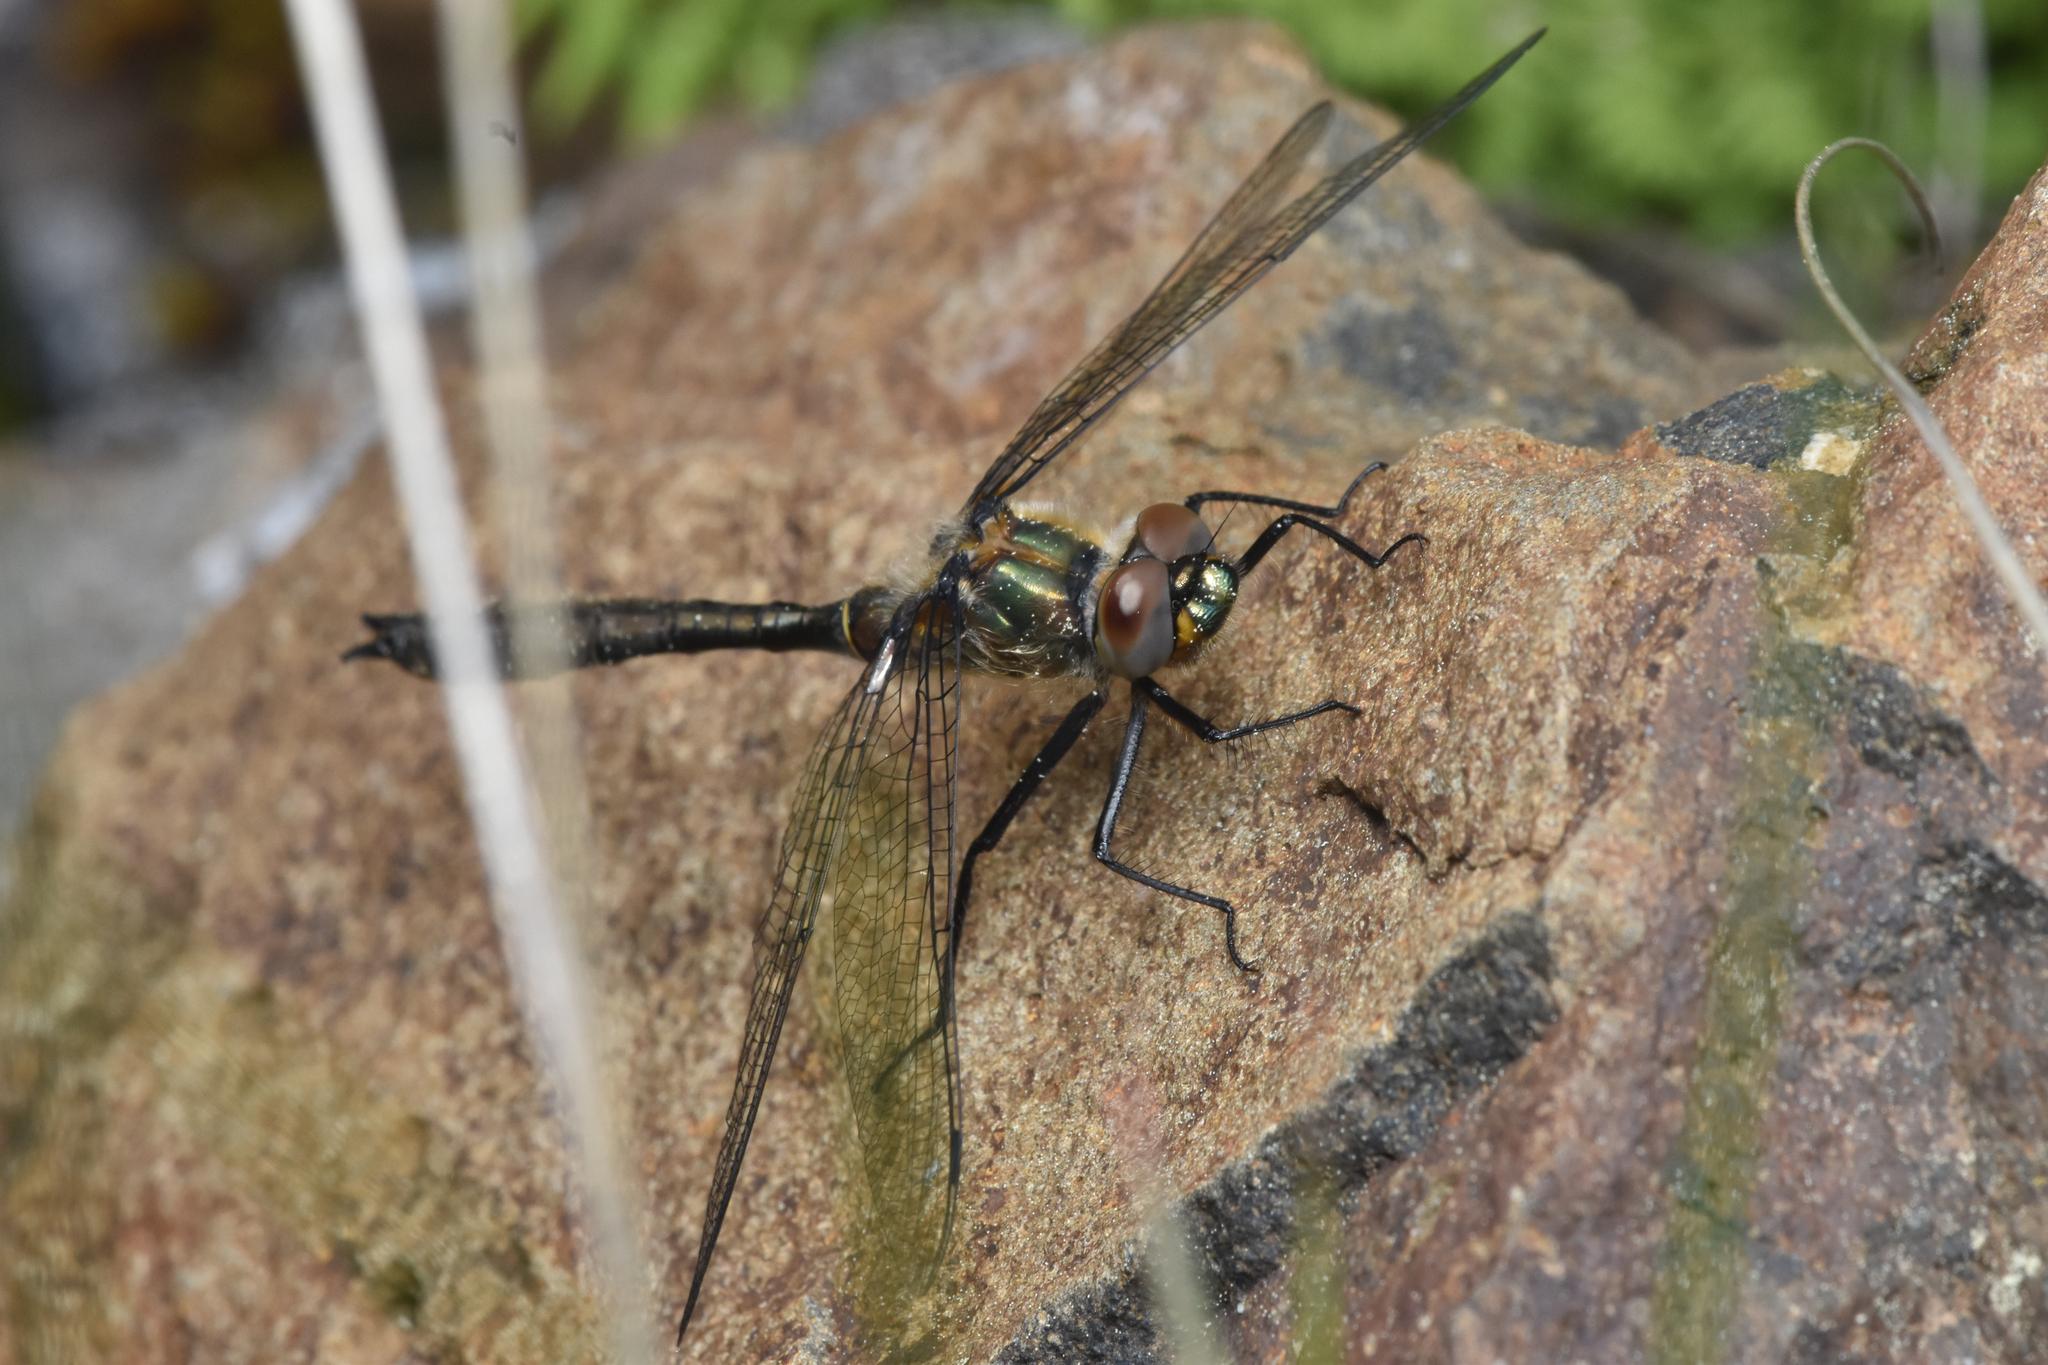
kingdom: Animalia
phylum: Arthropoda
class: Insecta
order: Odonata
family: Corduliidae
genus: Cordulia
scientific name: Cordulia shurtleffii
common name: American emerald
